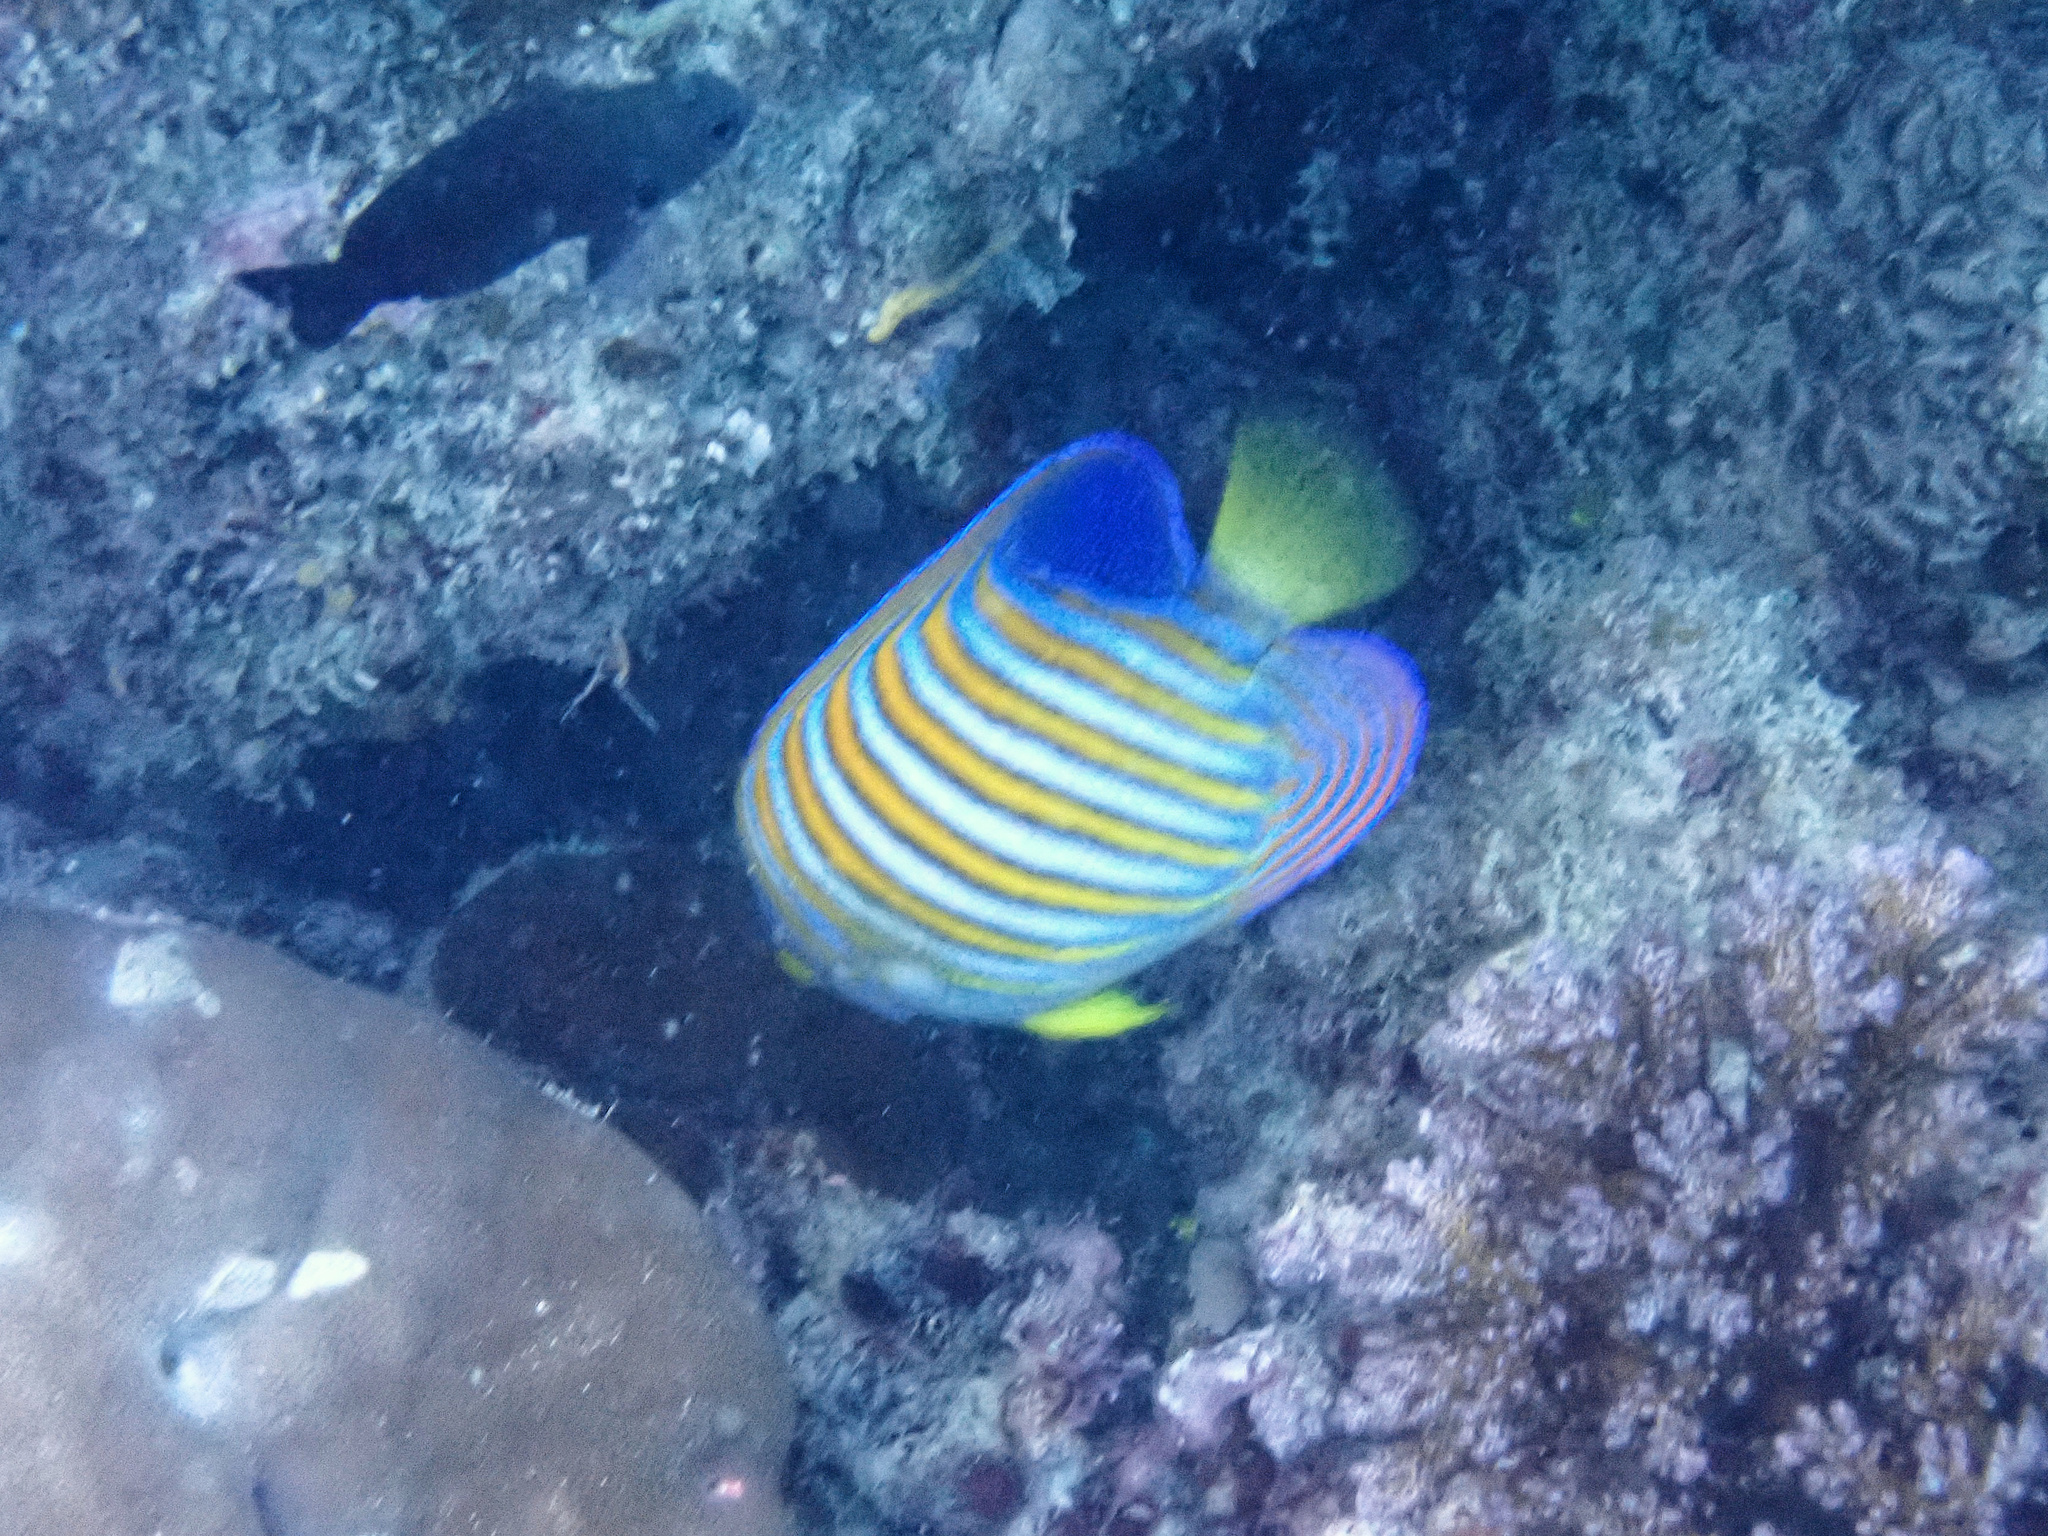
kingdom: Animalia
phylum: Chordata
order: Perciformes
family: Pomacanthidae
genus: Pygoplites
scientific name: Pygoplites diacanthus
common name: Regal angelfish
